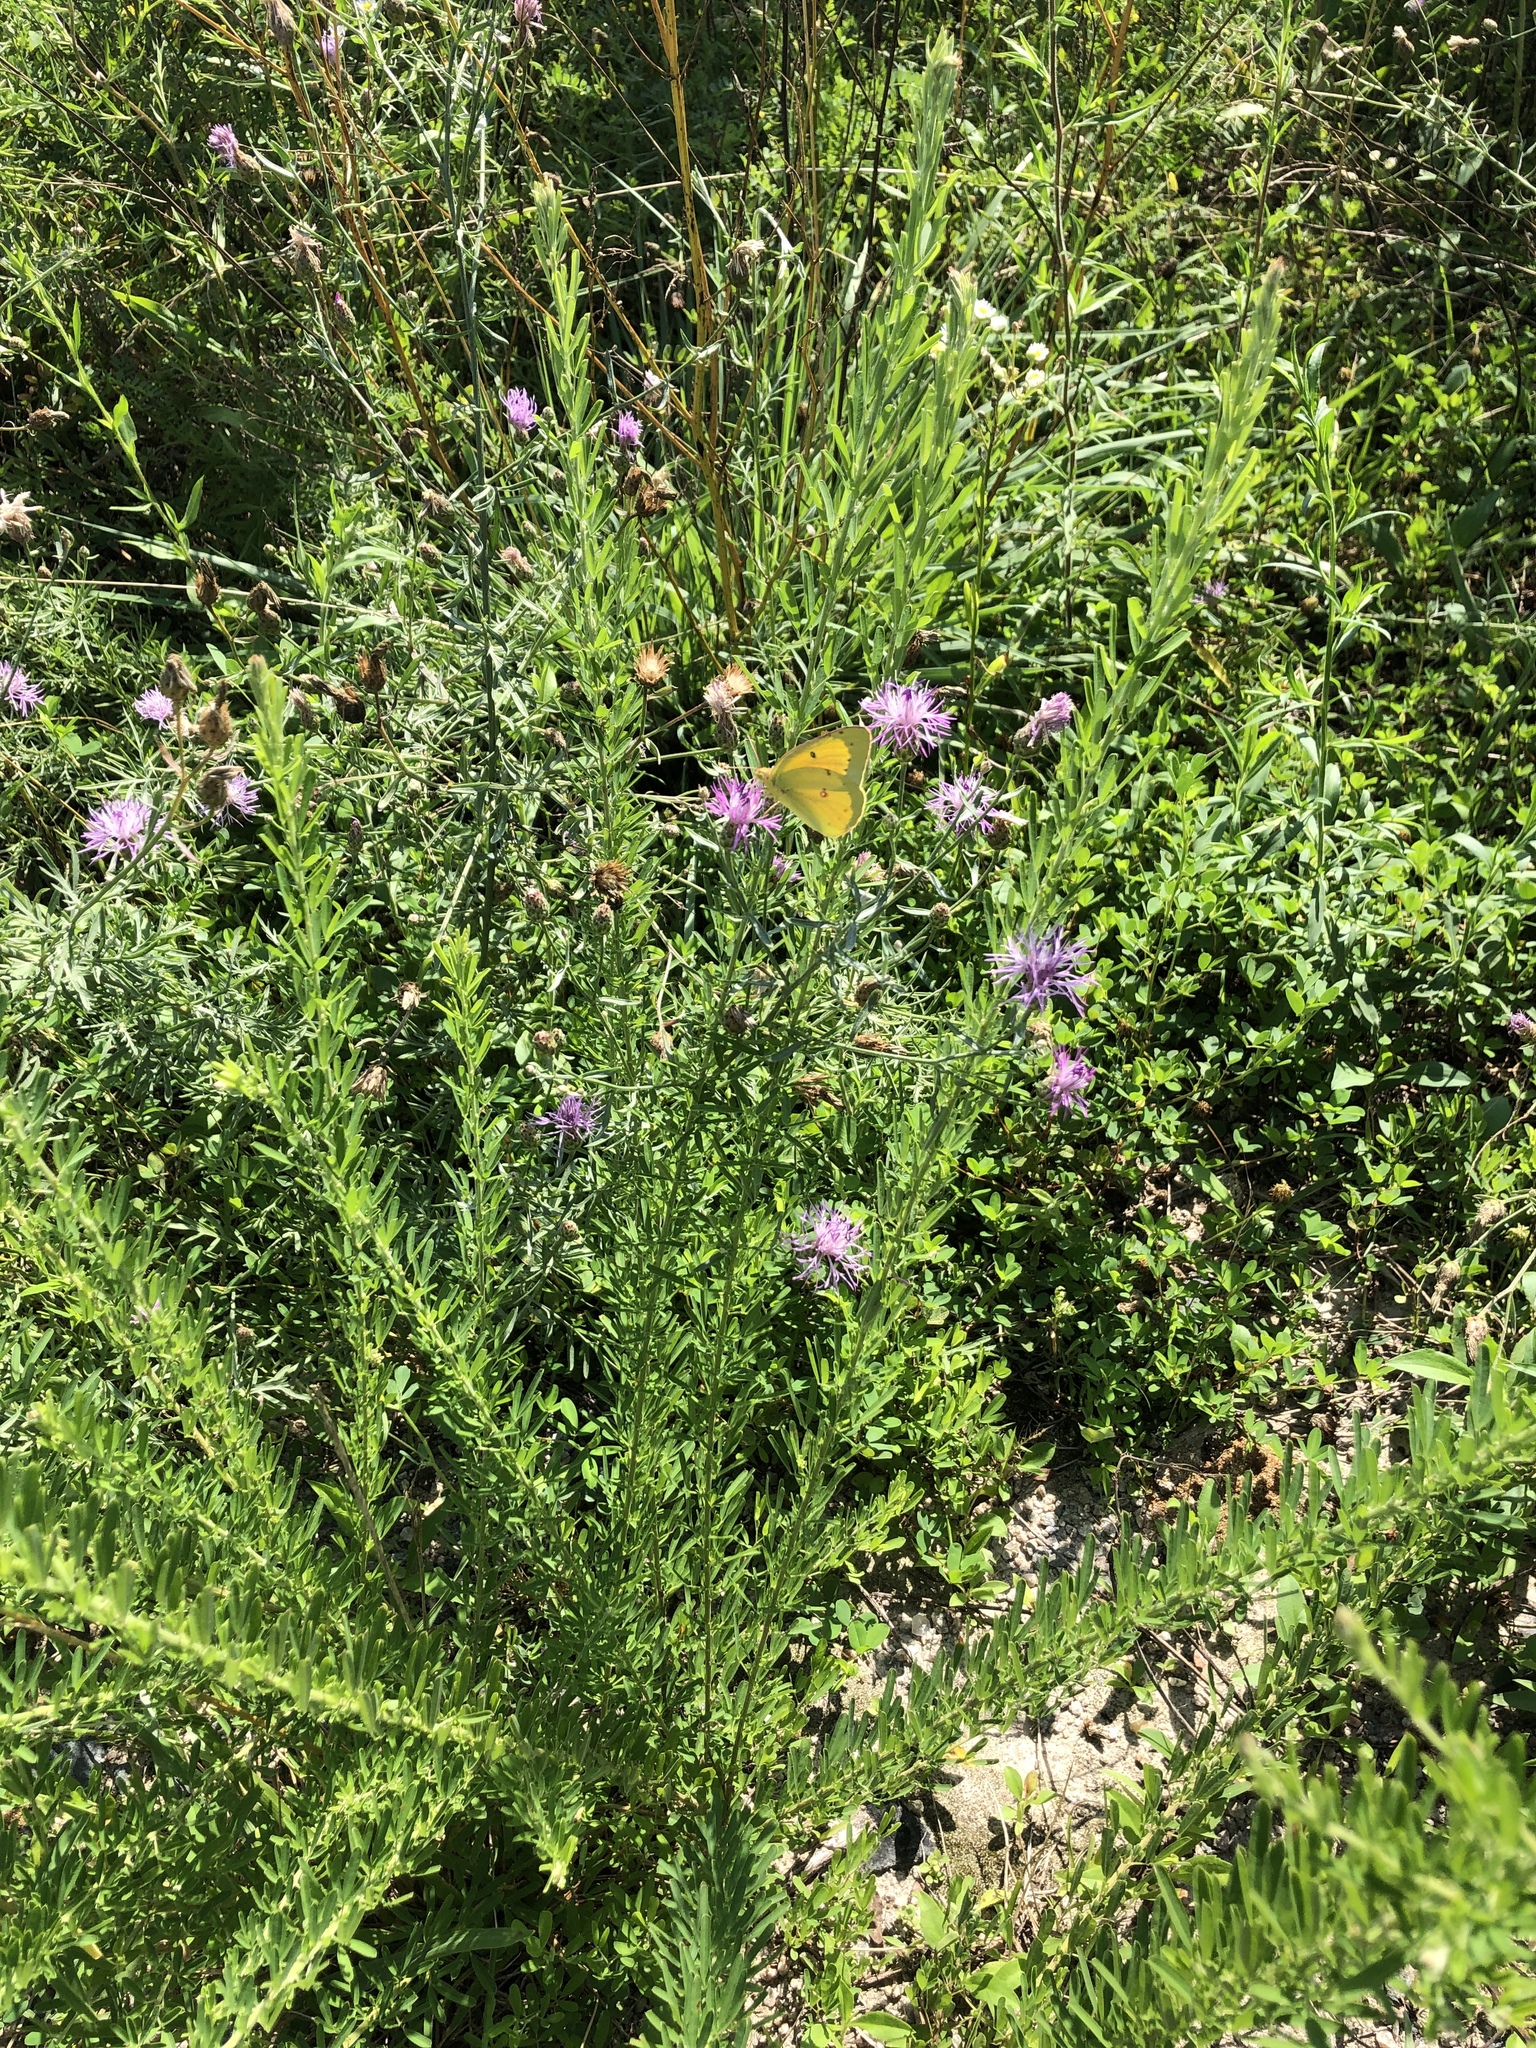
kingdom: Animalia
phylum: Arthropoda
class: Insecta
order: Lepidoptera
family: Pieridae
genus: Colias
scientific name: Colias eurytheme
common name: Alfalfa butterfly
